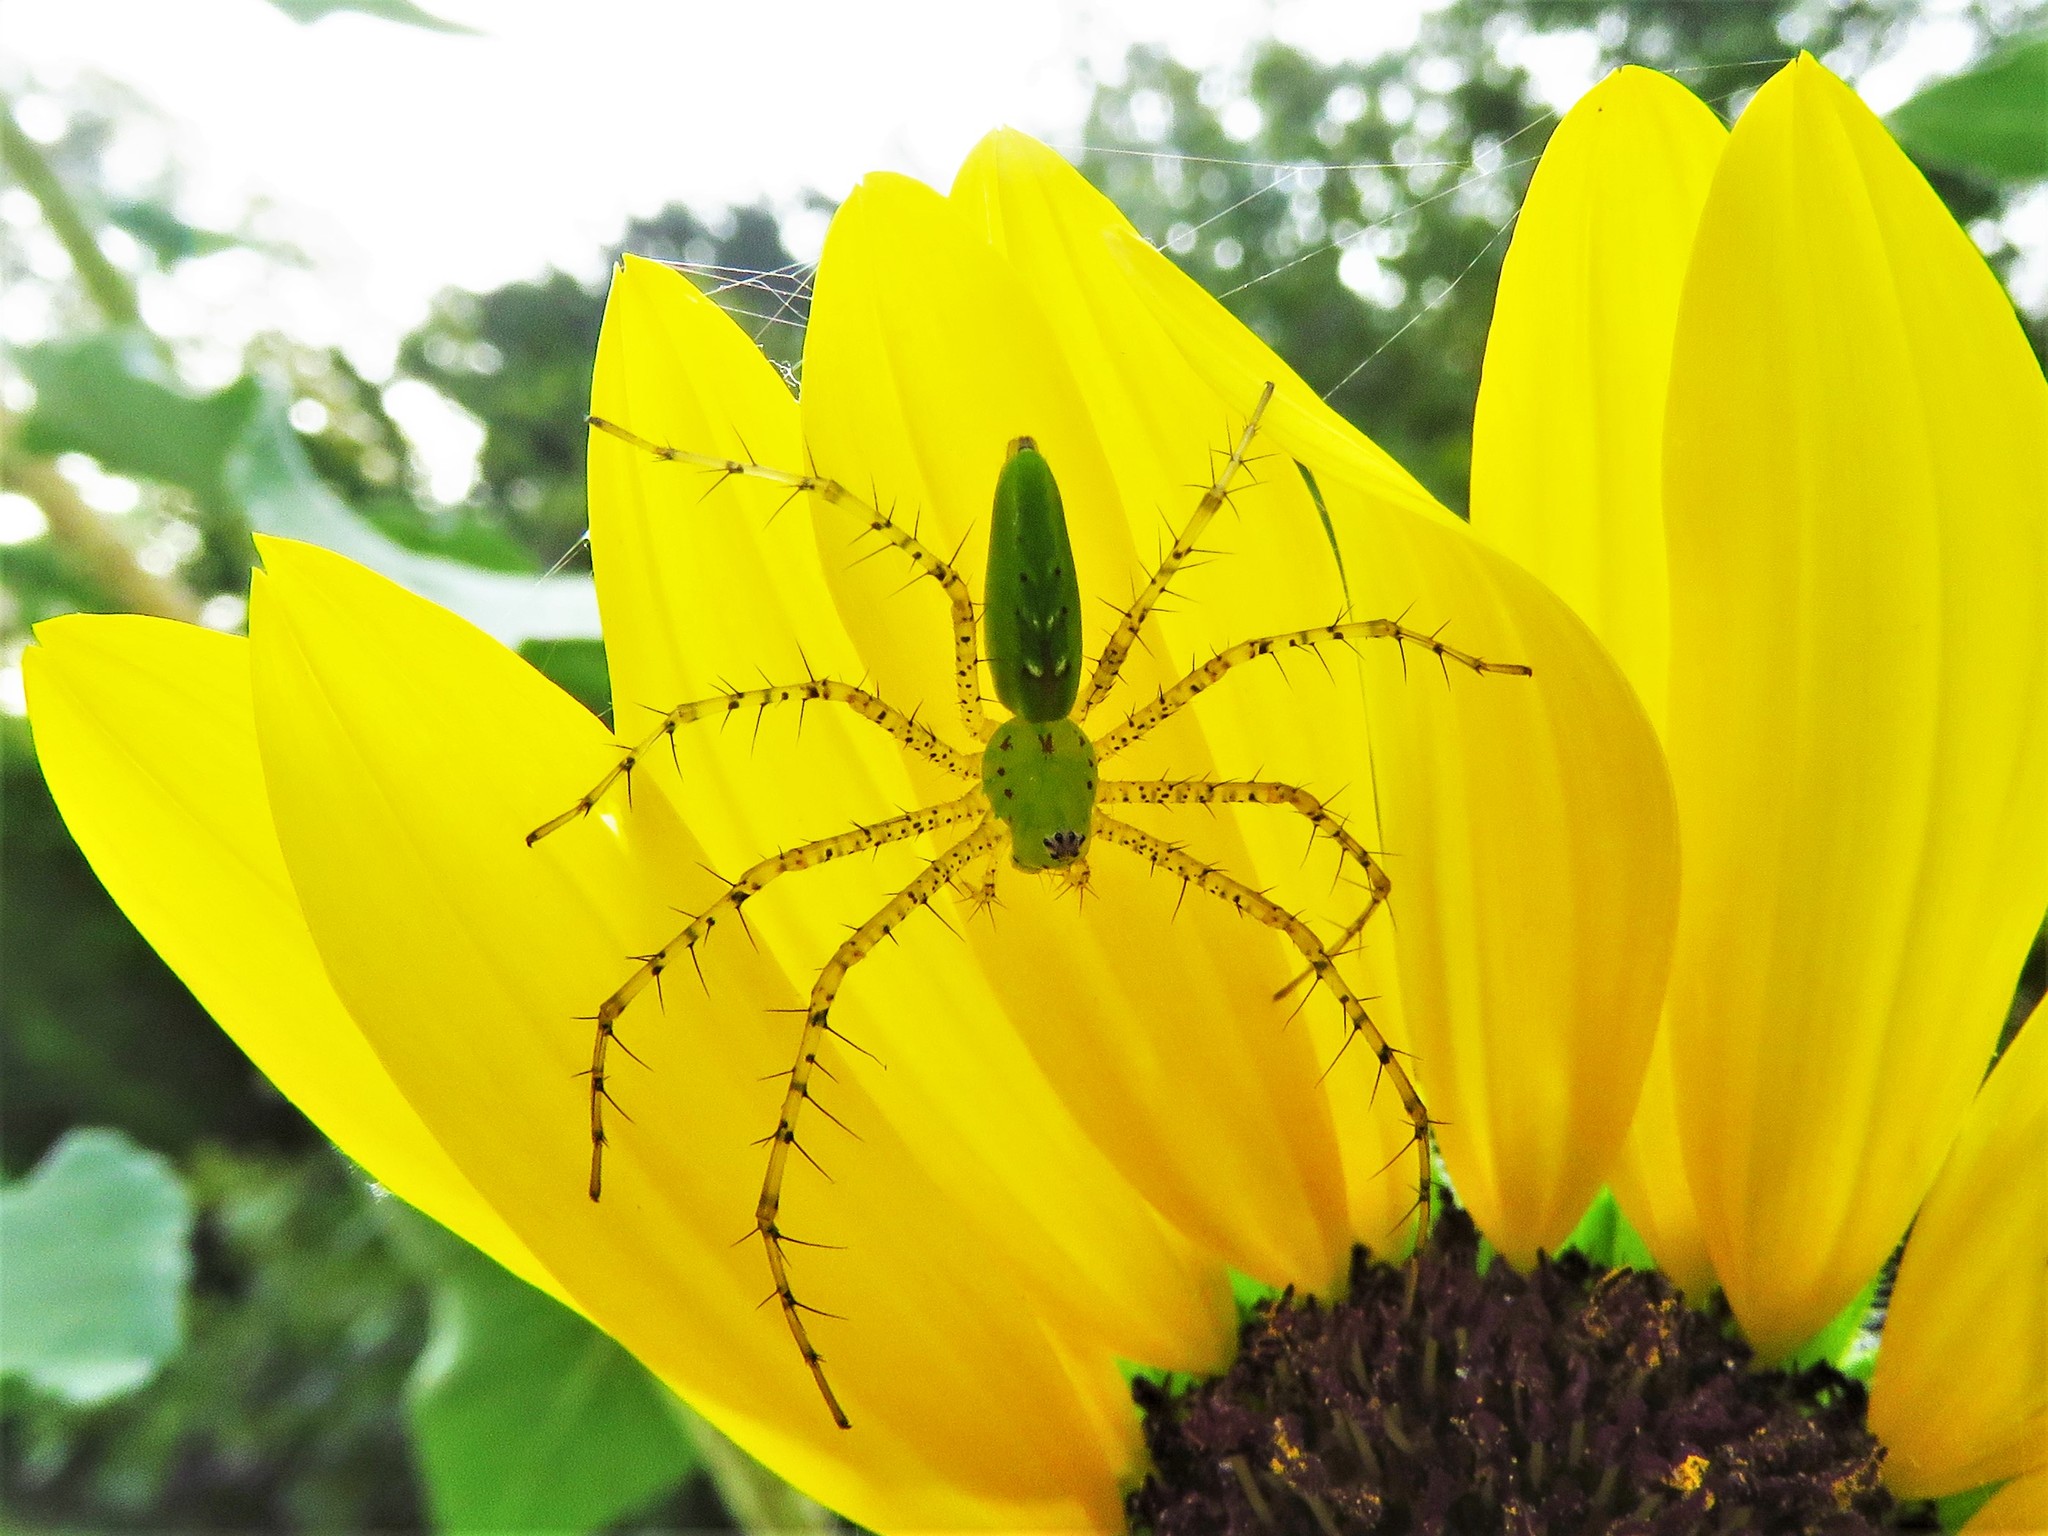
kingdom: Animalia
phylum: Arthropoda
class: Arachnida
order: Araneae
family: Oxyopidae
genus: Peucetia
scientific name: Peucetia viridans
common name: Lynx spiders
